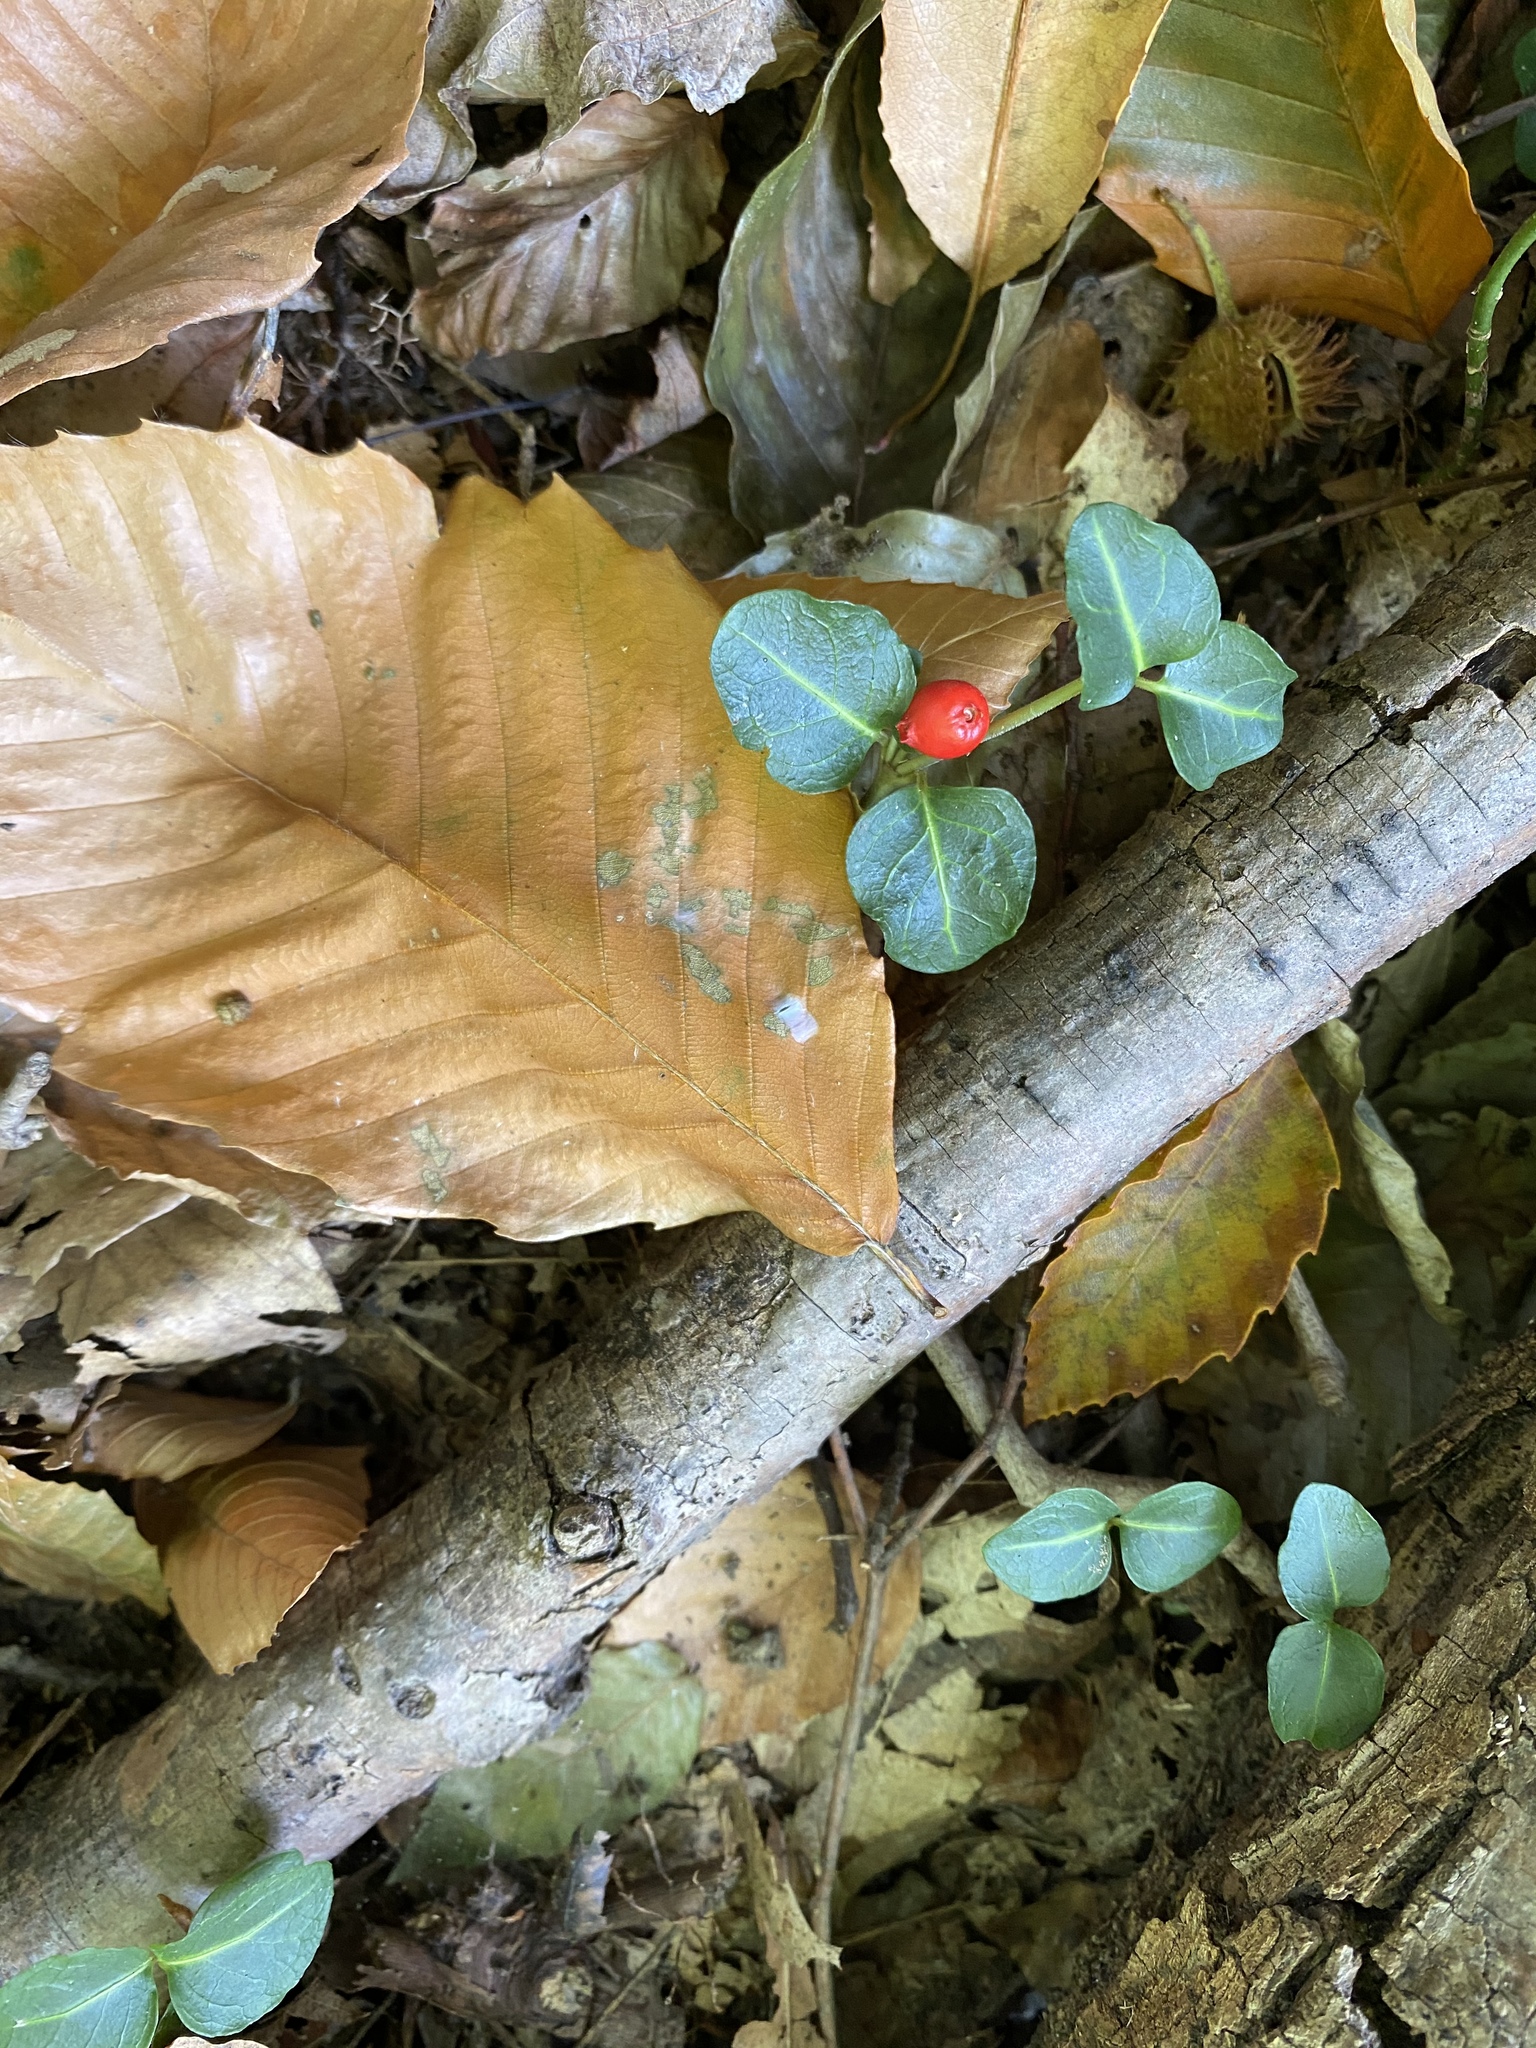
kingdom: Plantae
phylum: Tracheophyta
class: Magnoliopsida
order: Gentianales
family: Rubiaceae
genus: Mitchella
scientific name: Mitchella repens
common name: Partridge-berry
